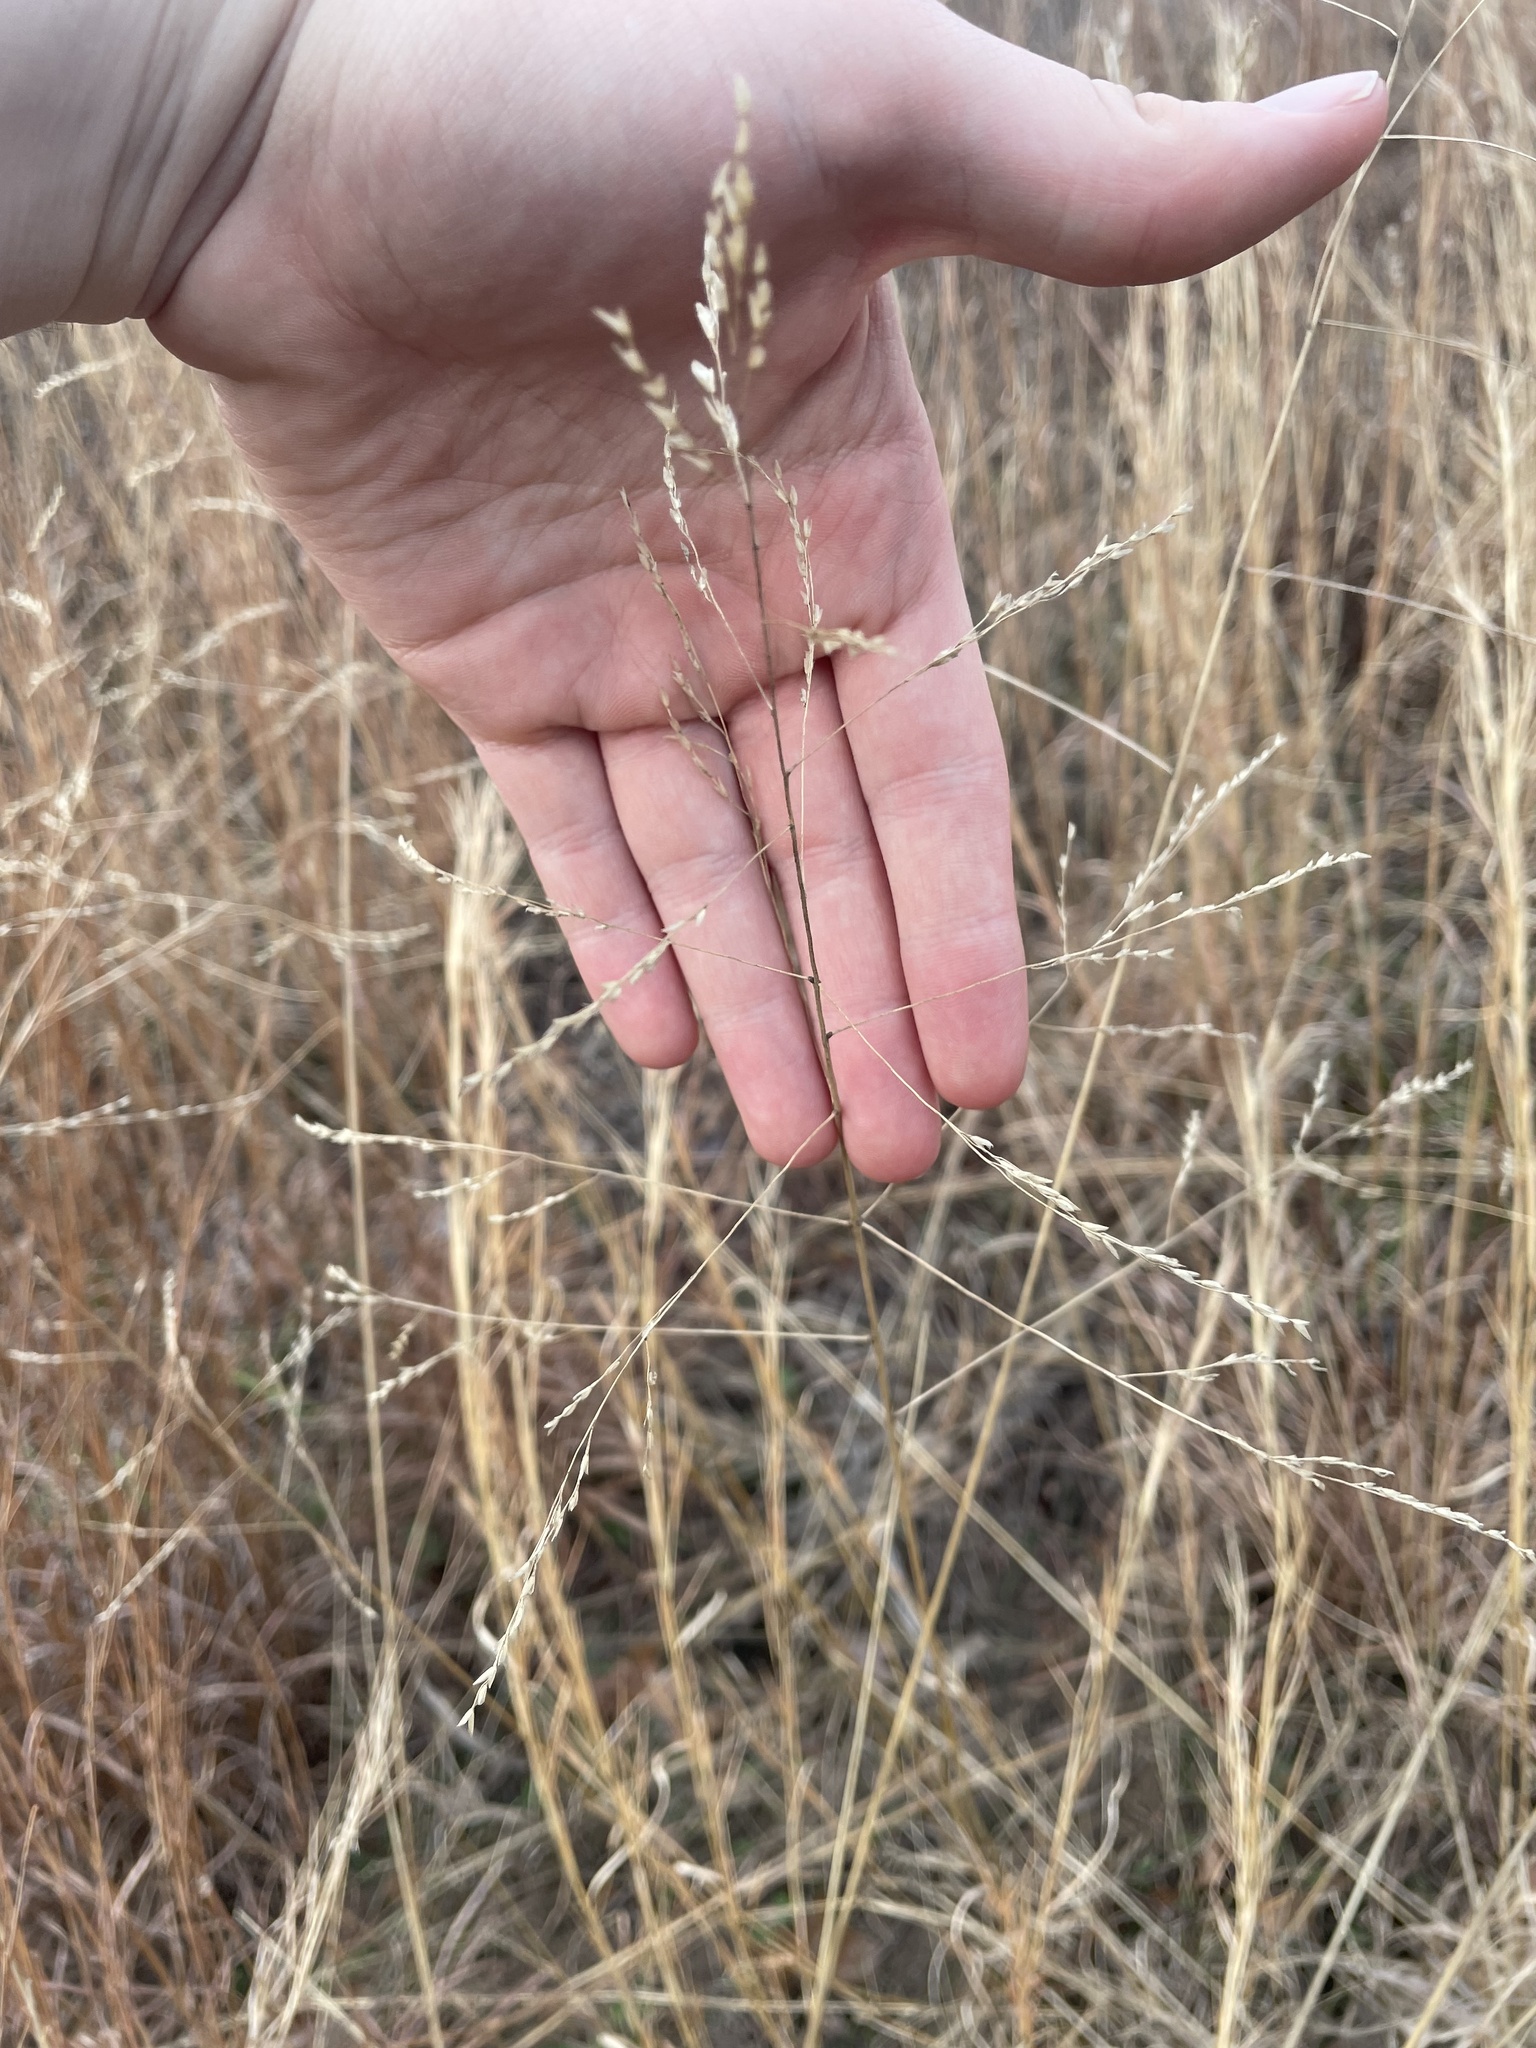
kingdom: Plantae
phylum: Tracheophyta
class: Liliopsida
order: Poales
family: Poaceae
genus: Tridens
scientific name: Tridens flavus
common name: Purpletop
